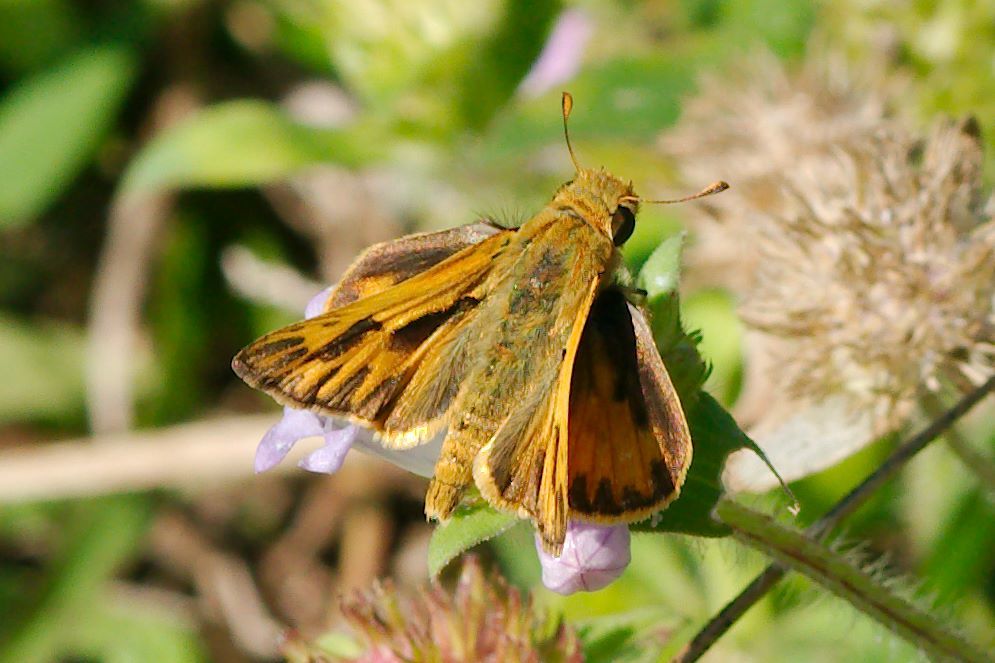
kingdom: Animalia
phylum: Arthropoda
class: Insecta
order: Lepidoptera
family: Hesperiidae
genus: Hylephila
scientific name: Hylephila phyleus
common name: Fiery skipper
